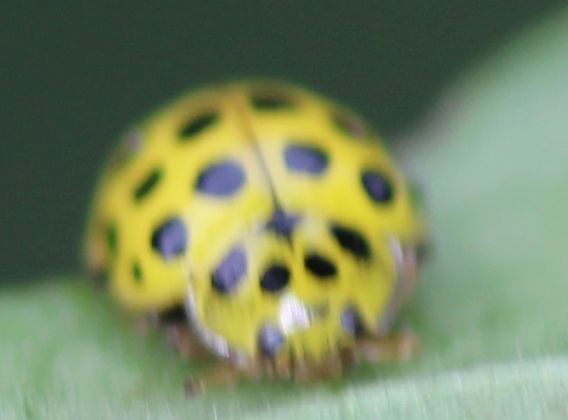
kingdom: Animalia
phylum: Arthropoda
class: Insecta
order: Coleoptera
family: Coccinellidae
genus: Psyllobora
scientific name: Psyllobora vigintiduopunctata
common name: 22-spot ladybird
